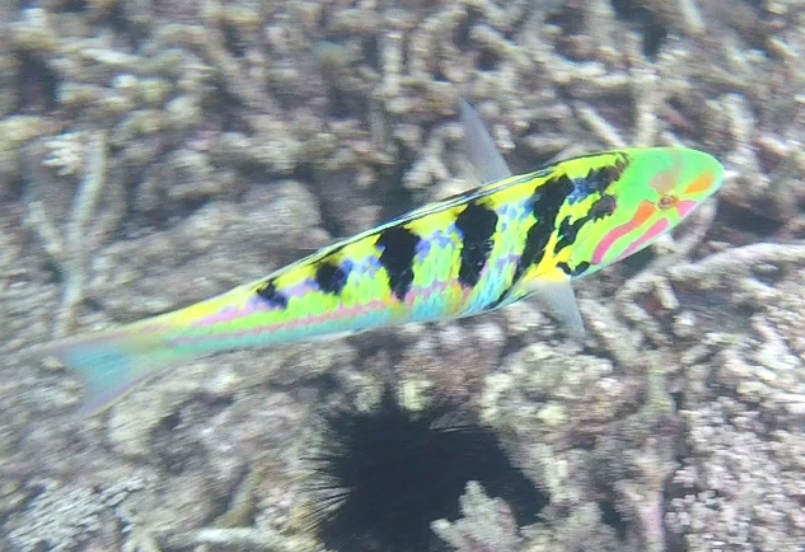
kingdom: Animalia
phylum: Chordata
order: Perciformes
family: Labridae
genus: Thalassoma
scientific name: Thalassoma hardwicke
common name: Sixbar wrasse
